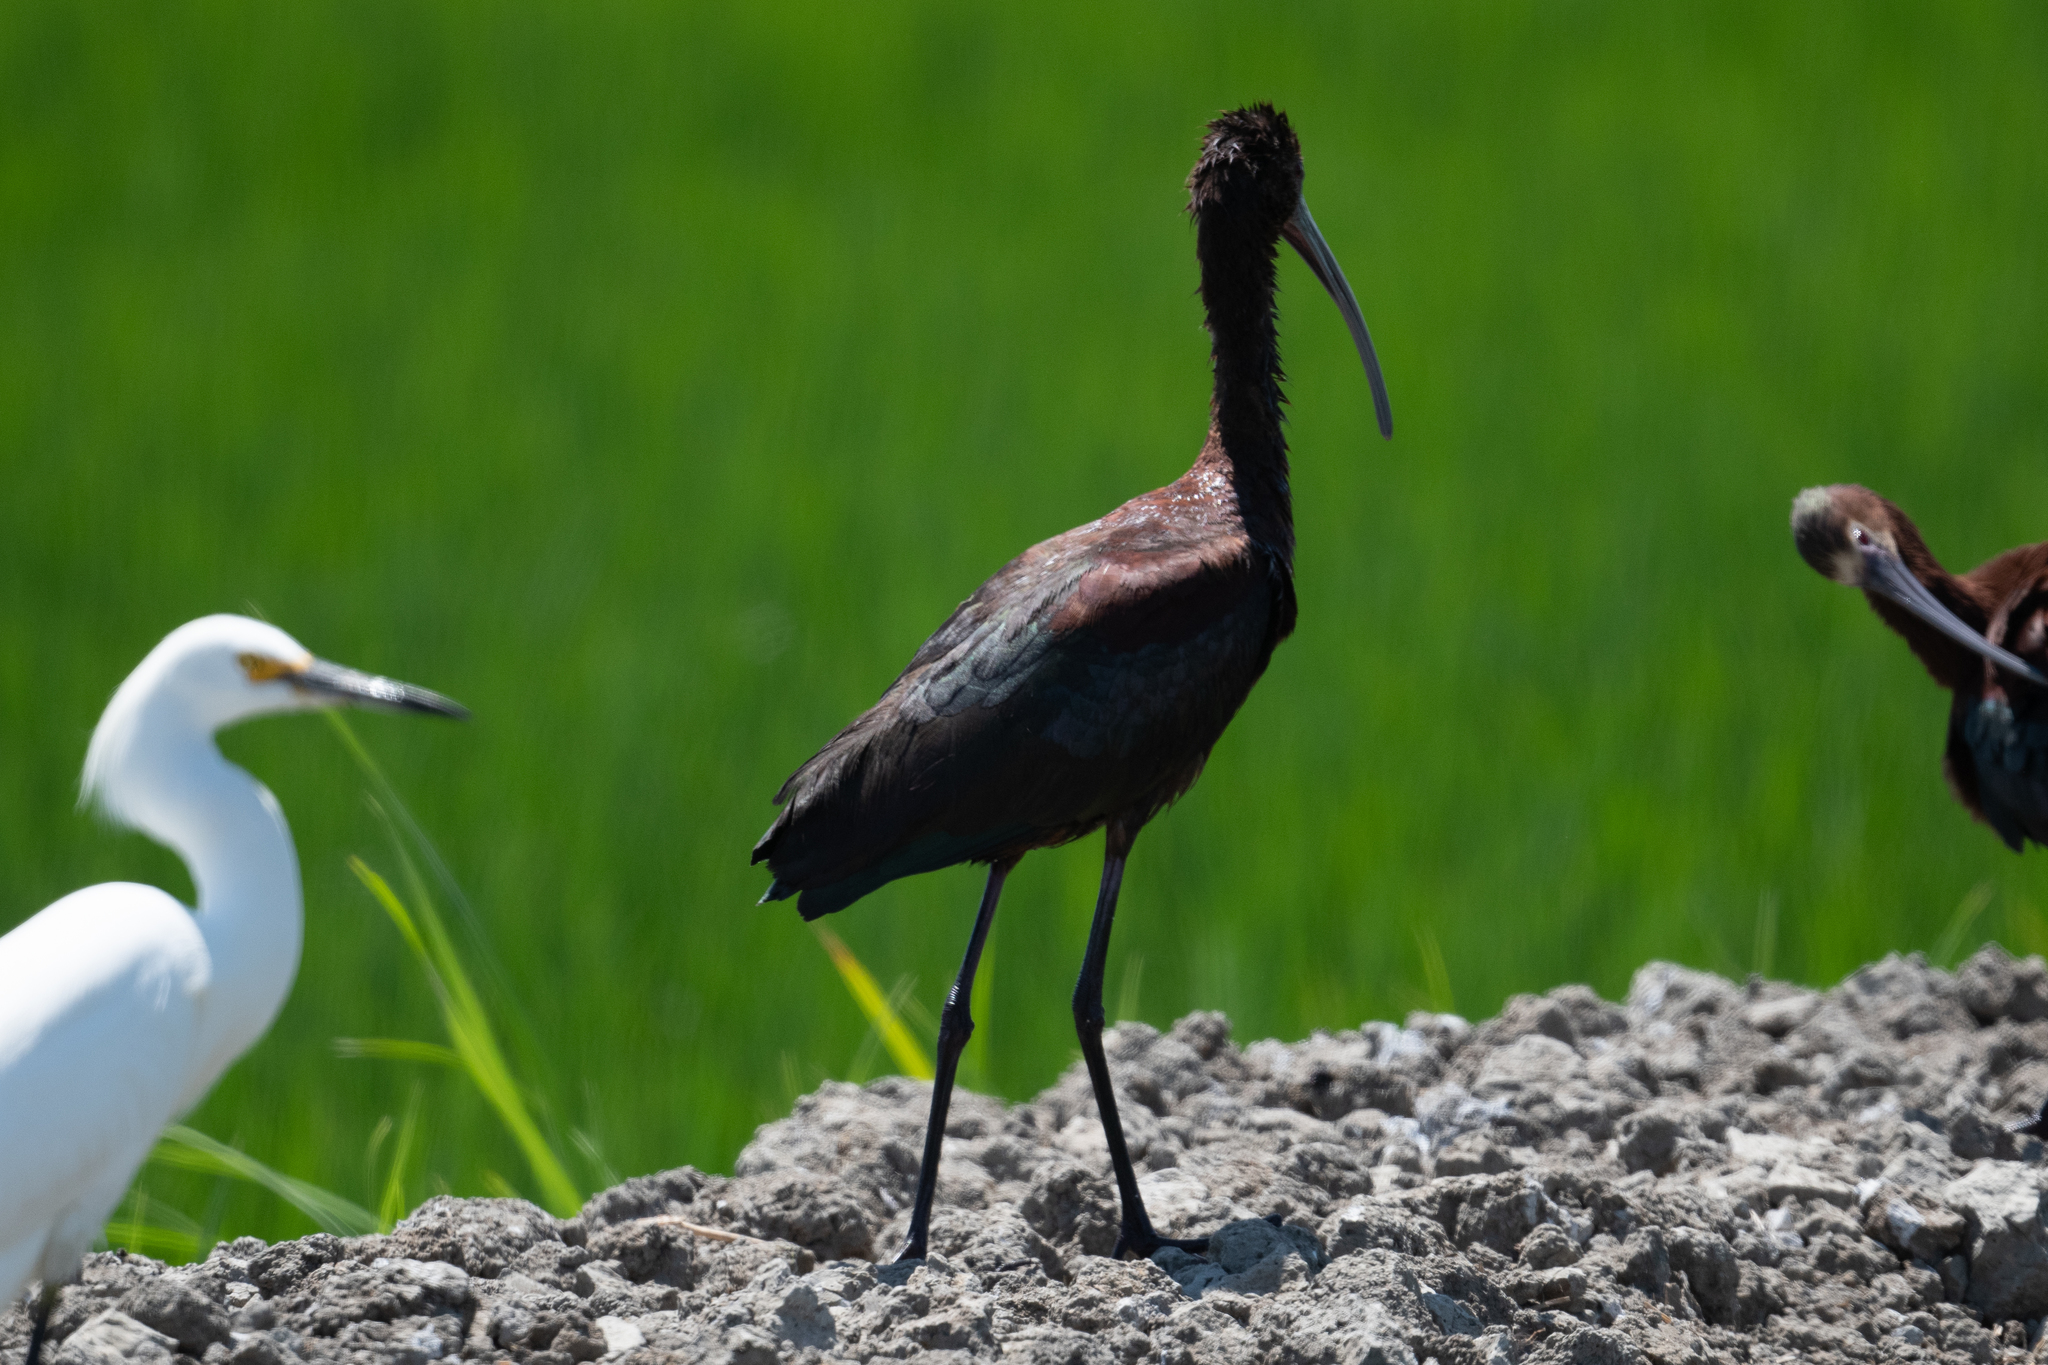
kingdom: Animalia
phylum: Chordata
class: Aves
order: Pelecaniformes
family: Threskiornithidae
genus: Plegadis
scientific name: Plegadis chihi
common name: White-faced ibis
